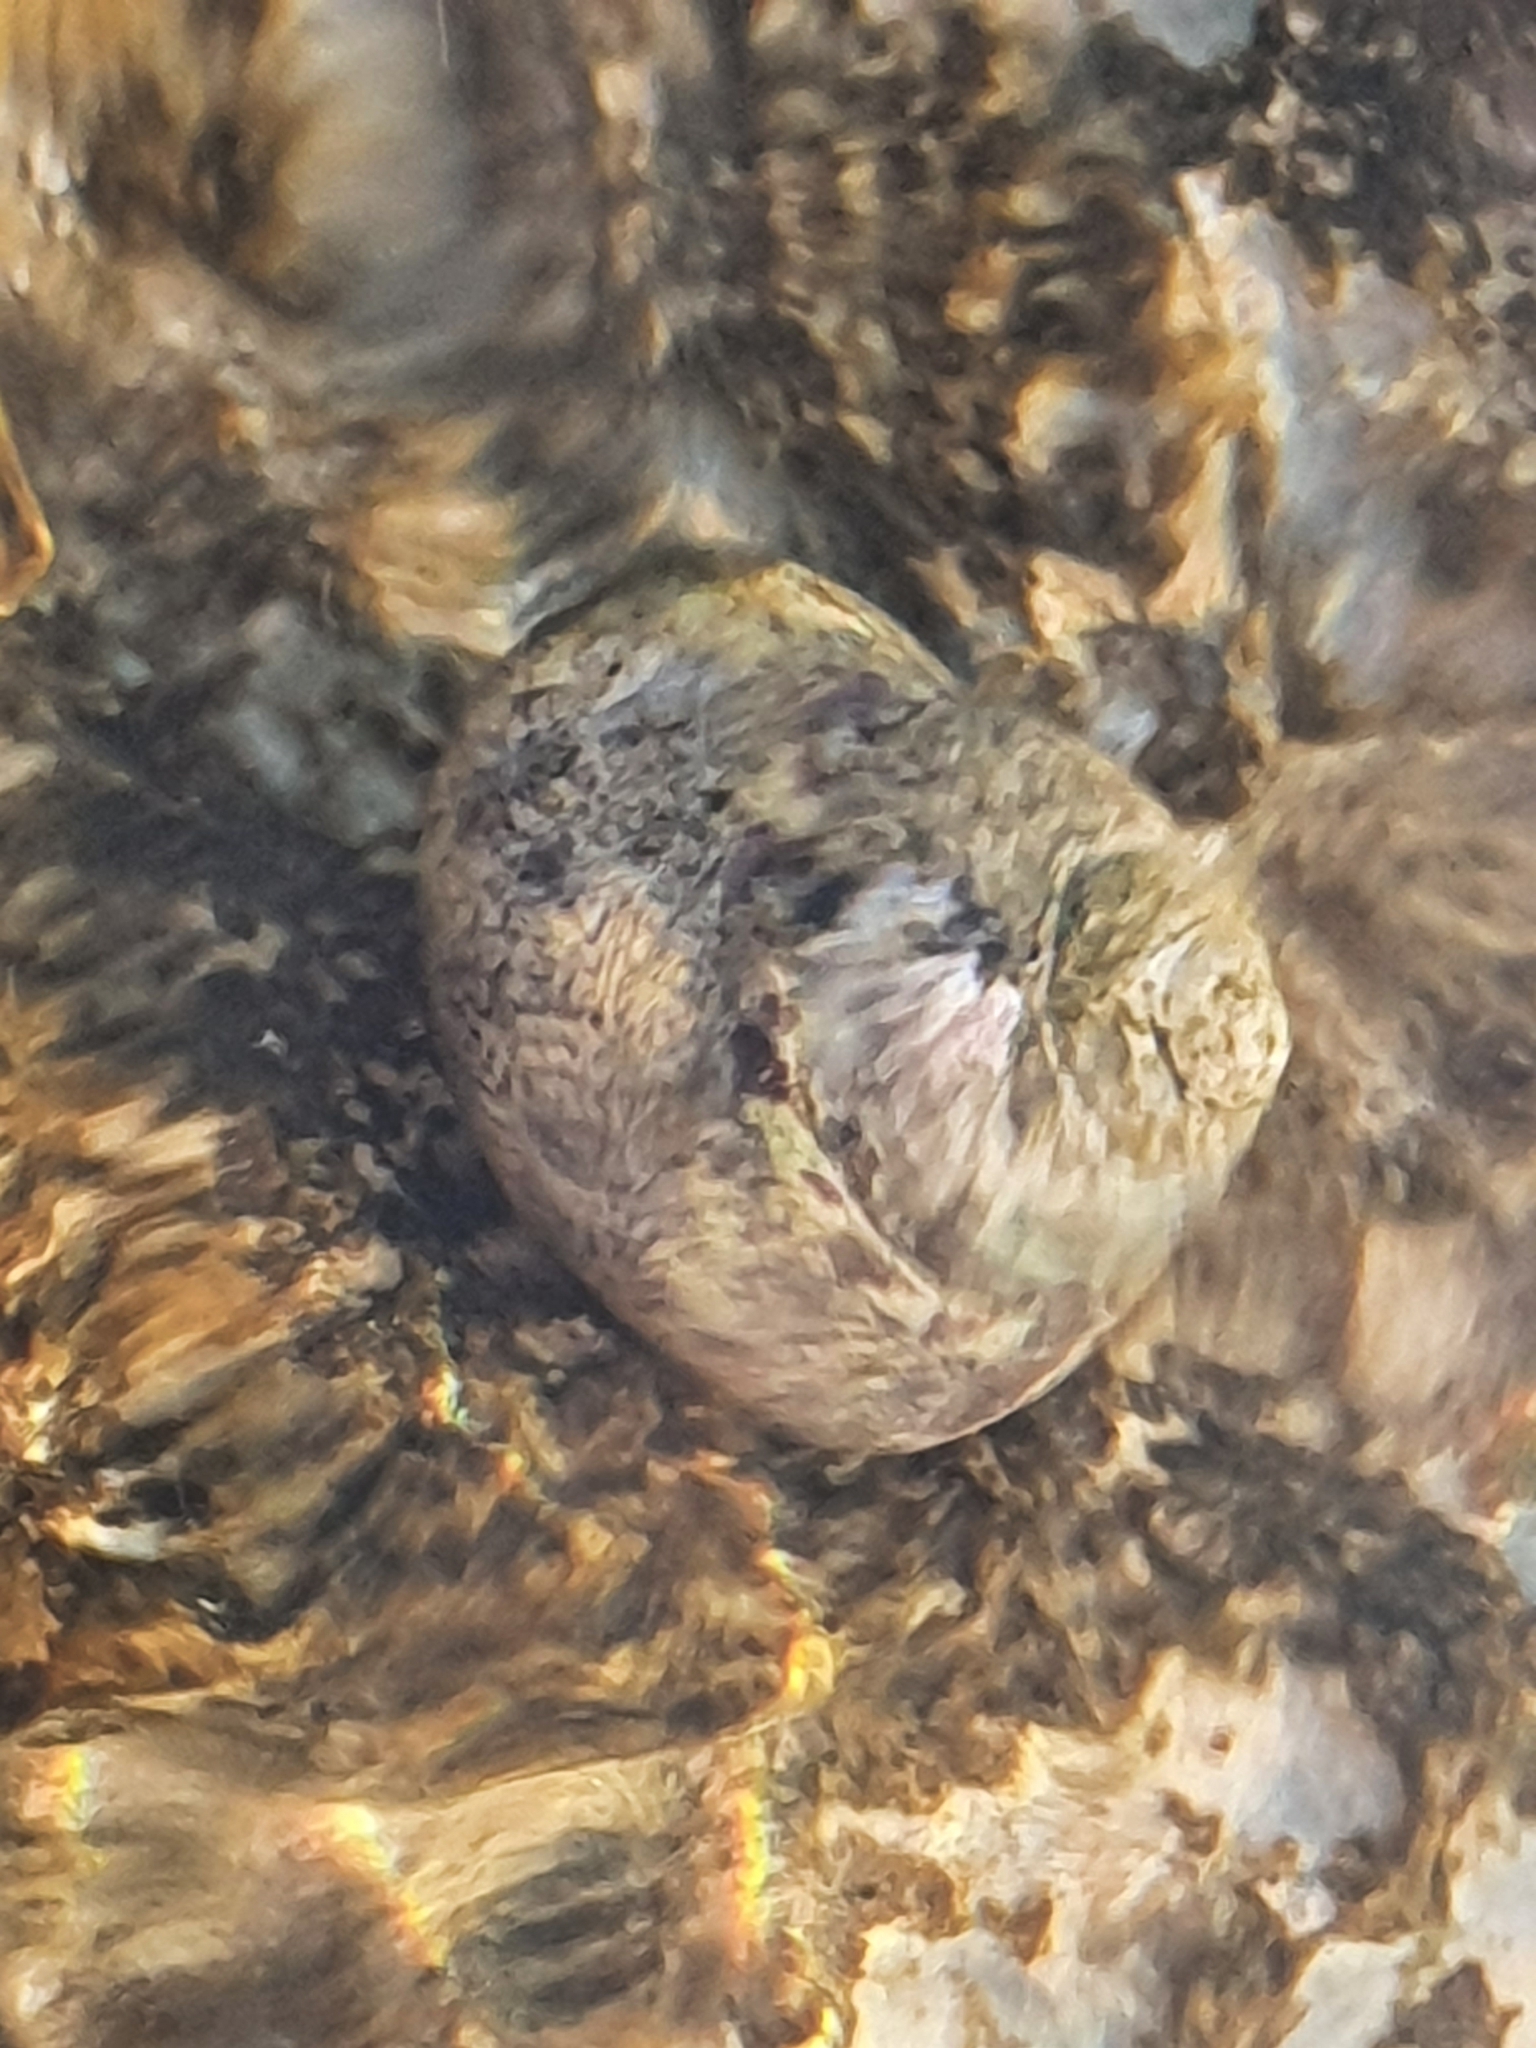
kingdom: Animalia
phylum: Mollusca
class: Gastropoda
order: Trochida
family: Trochidae
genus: Phorcus
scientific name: Phorcus articulatus
